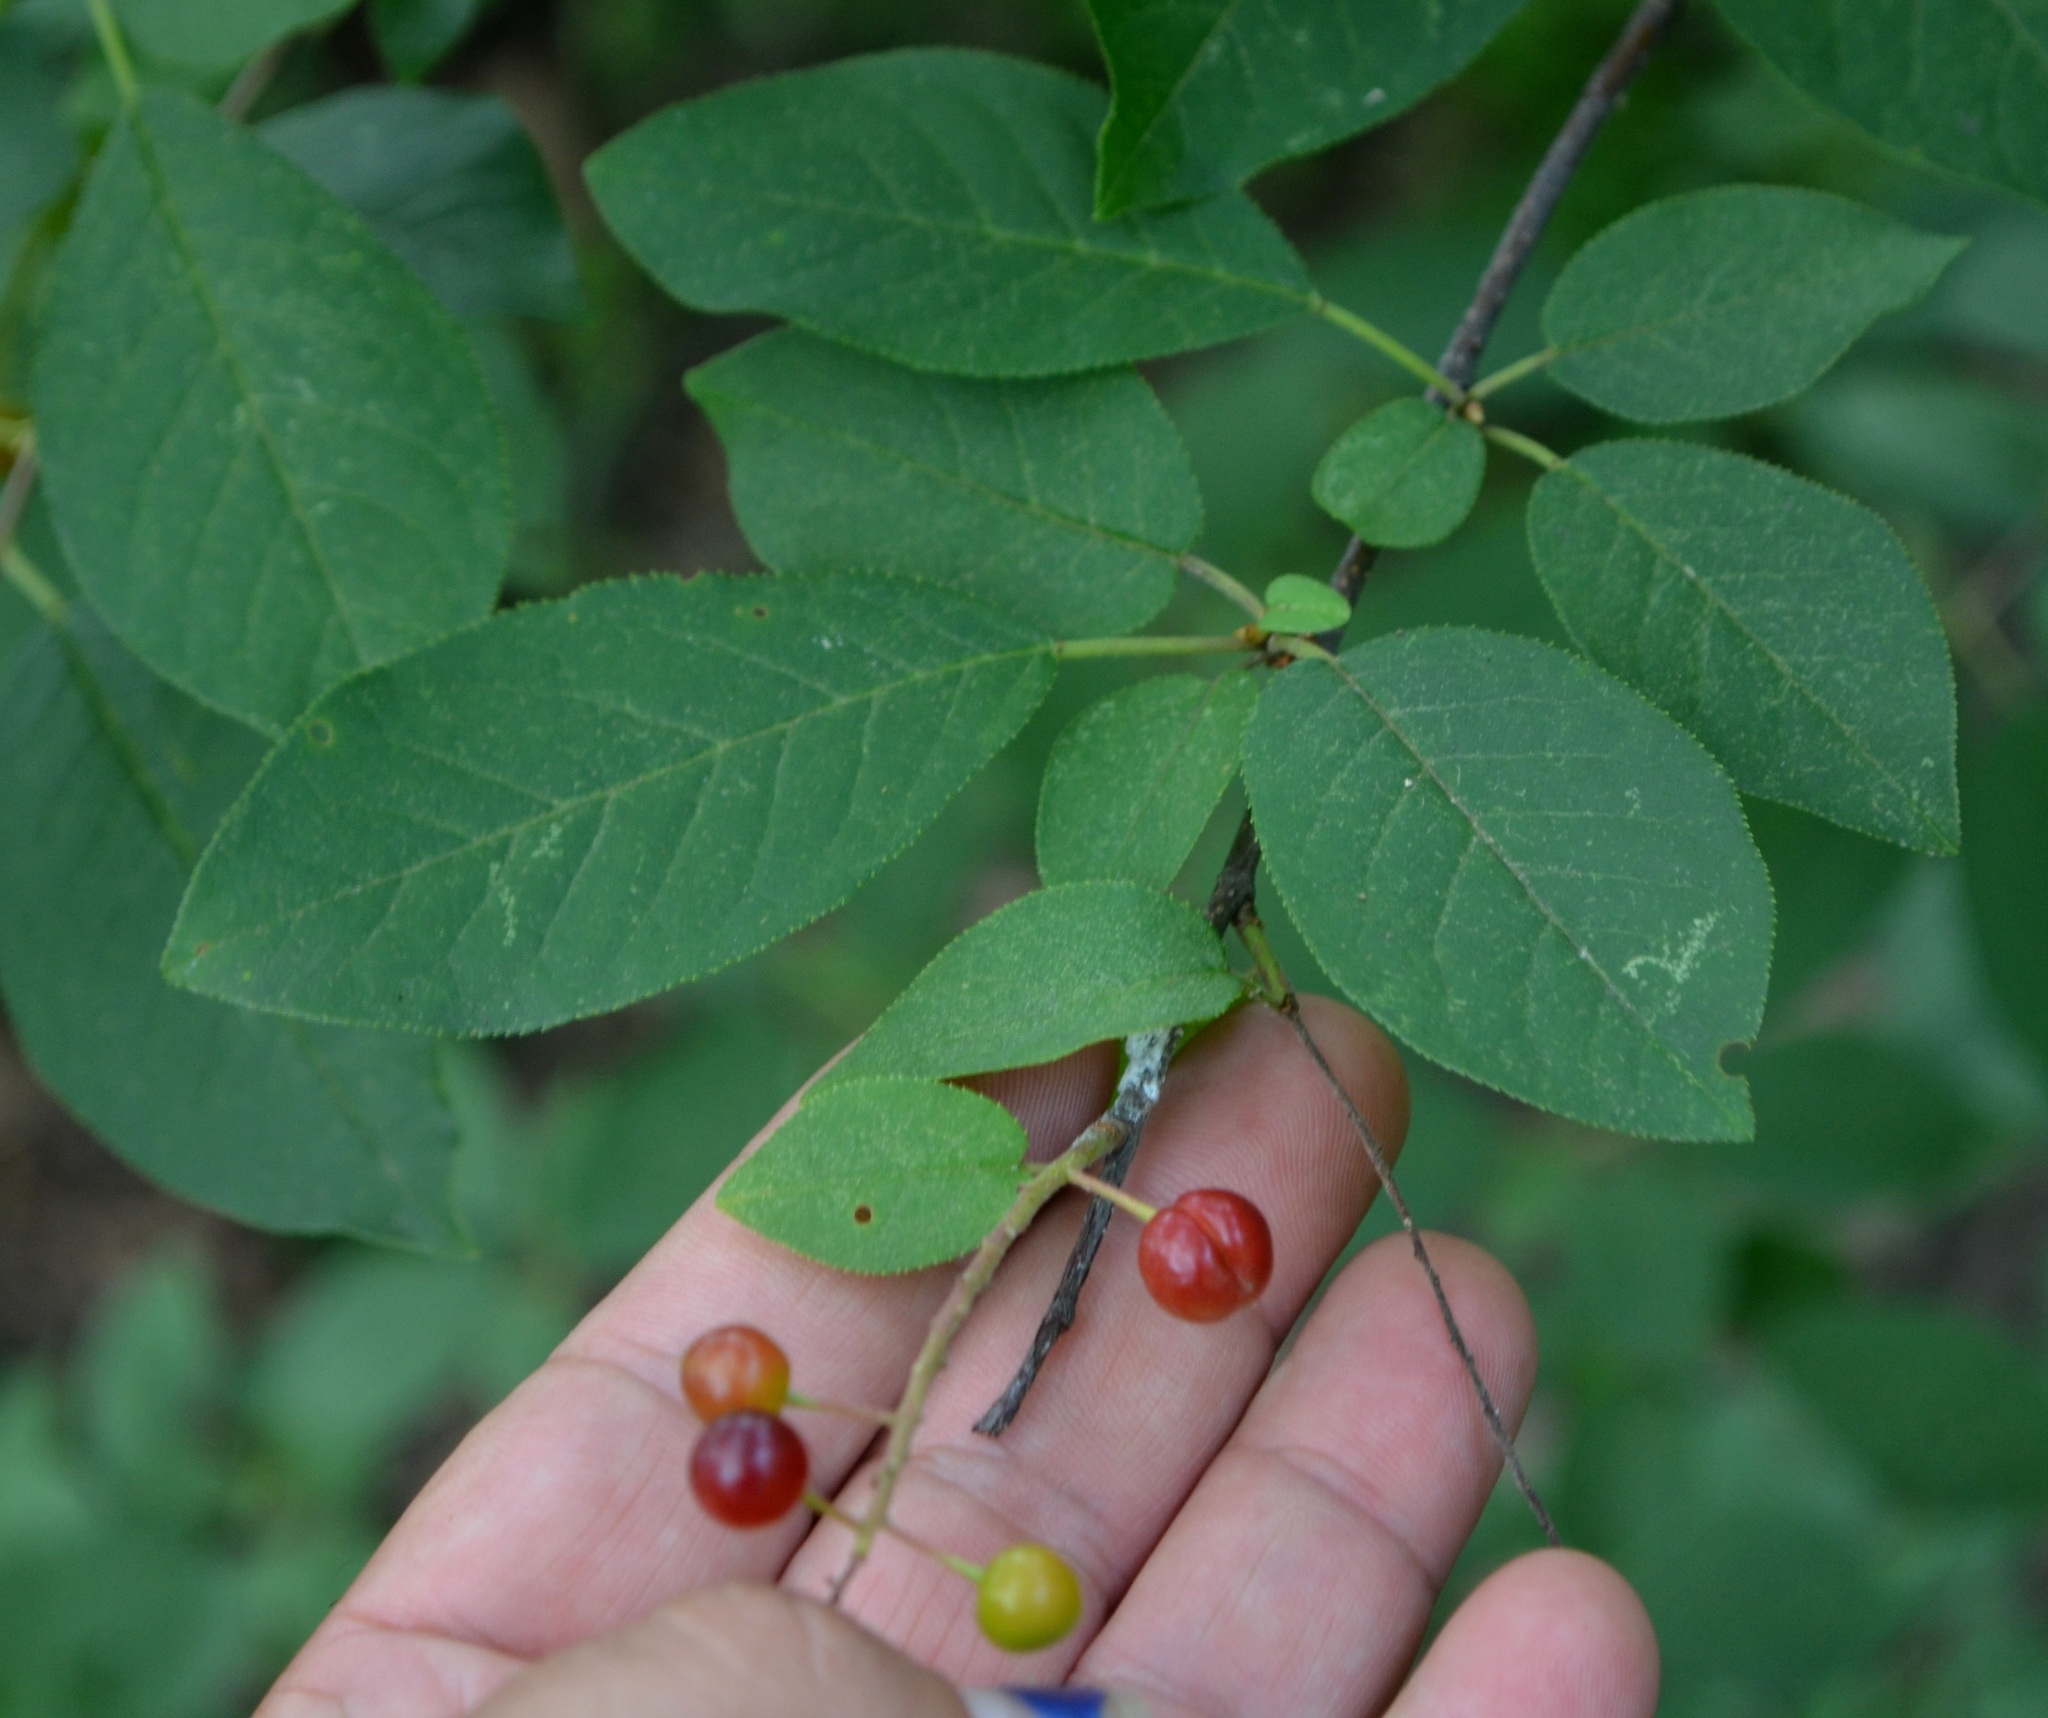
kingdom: Plantae
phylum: Tracheophyta
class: Magnoliopsida
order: Rosales
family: Rosaceae
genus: Prunus
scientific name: Prunus virginiana
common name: Chokecherry
